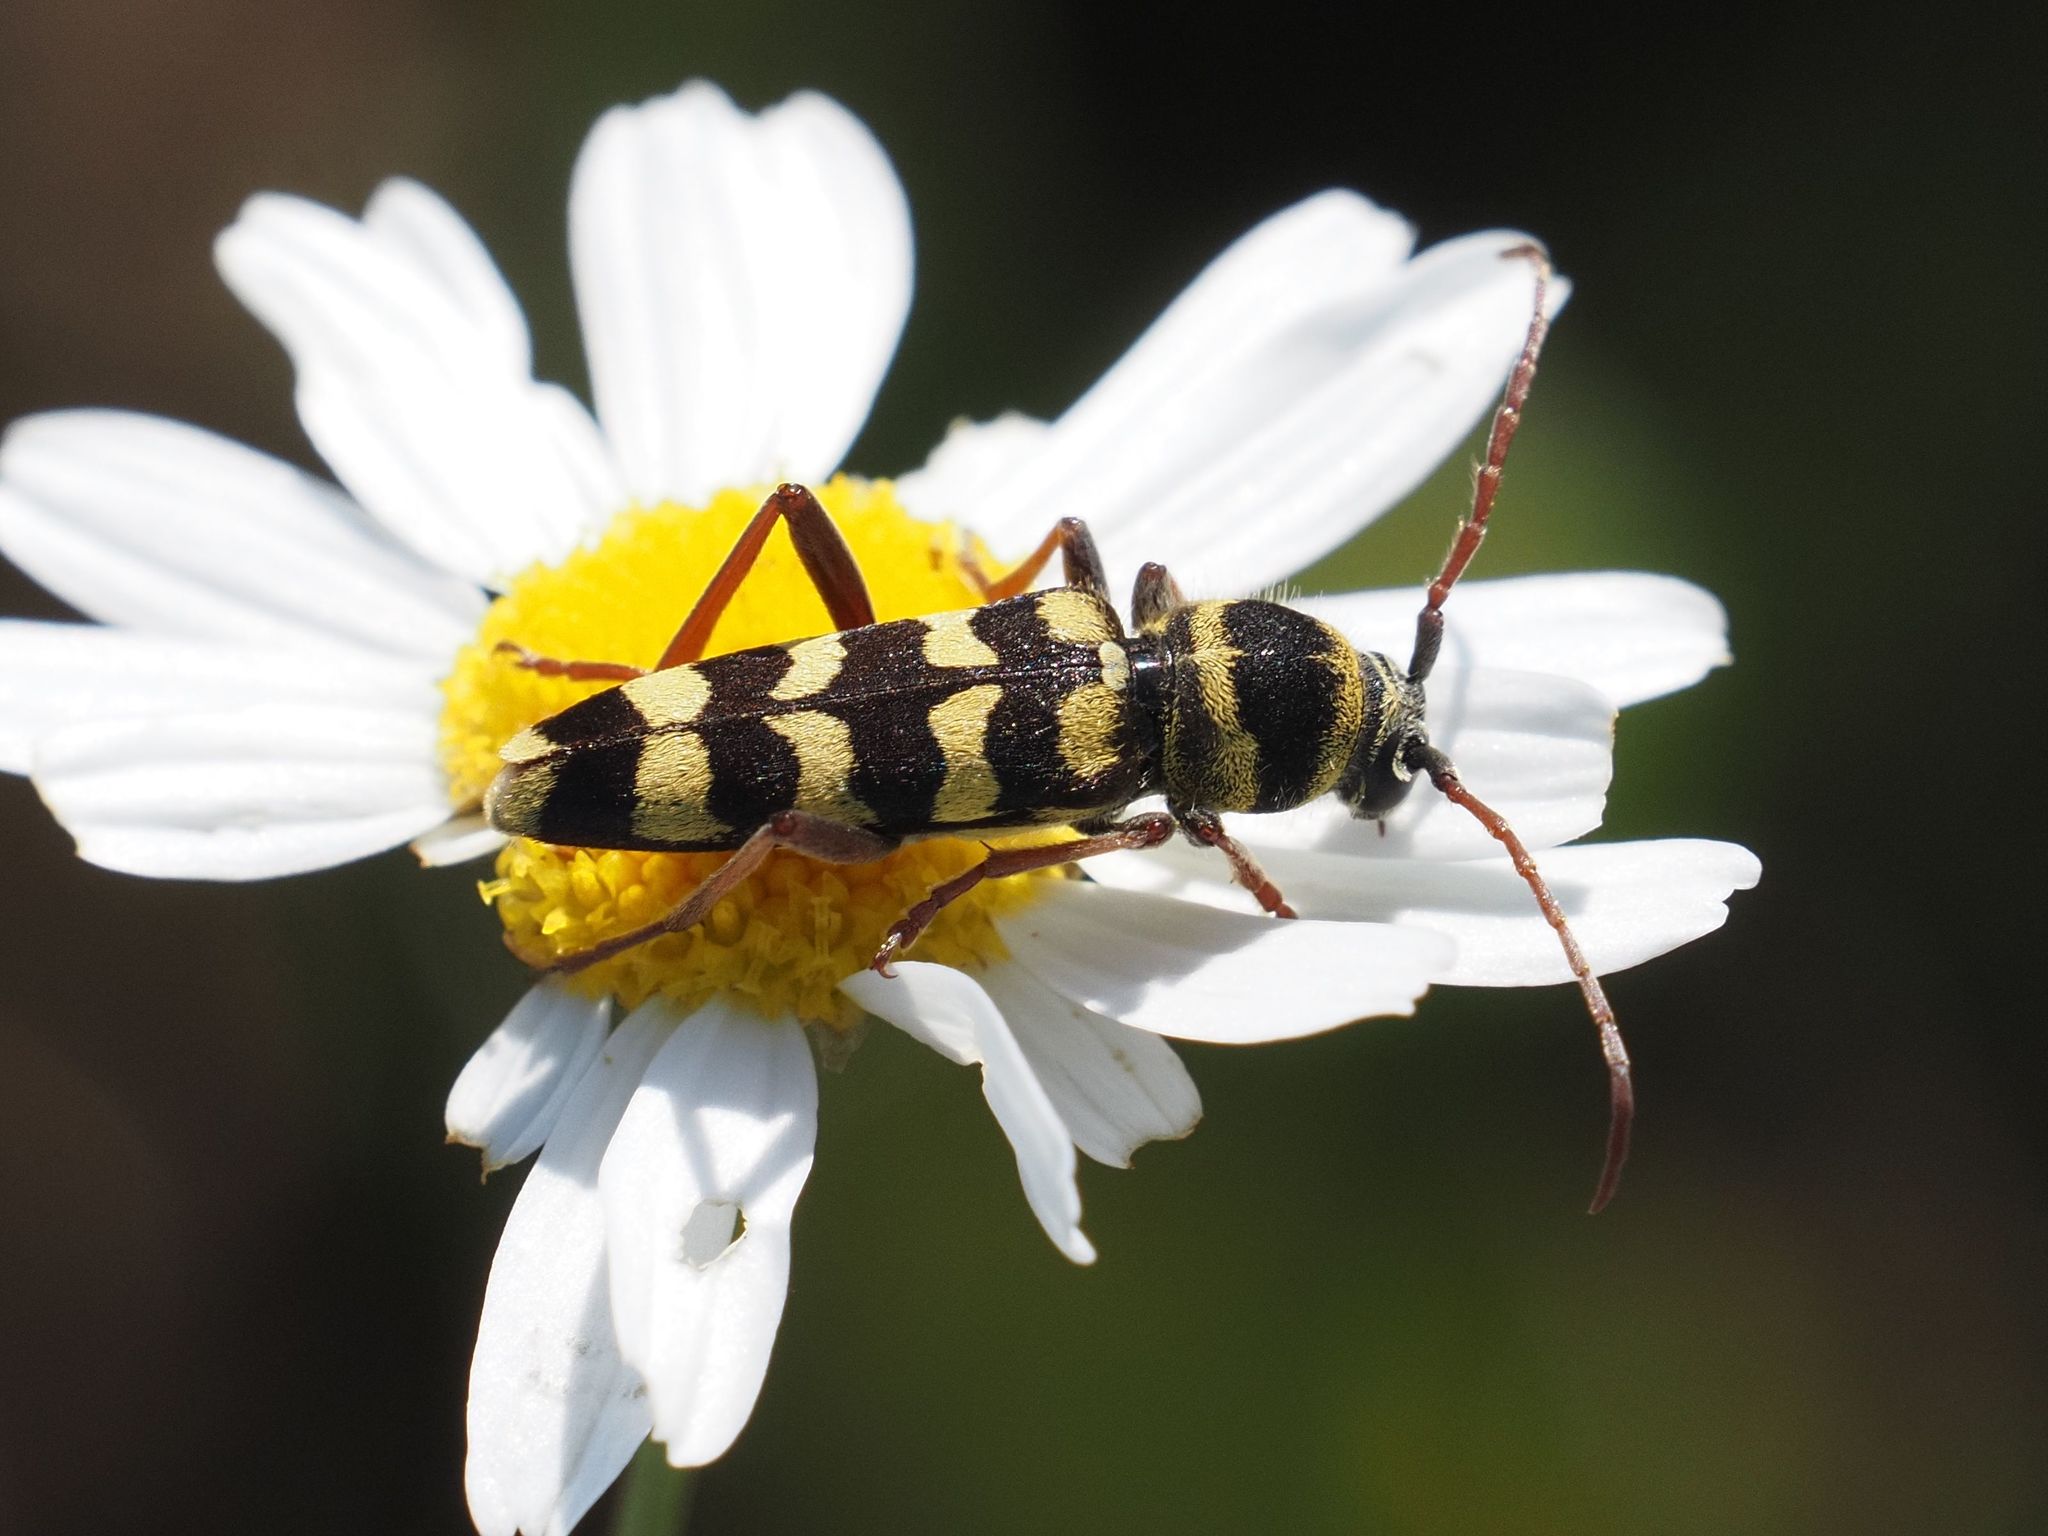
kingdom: Animalia
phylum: Arthropoda
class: Insecta
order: Coleoptera
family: Cerambycidae
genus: Plagionotus
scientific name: Plagionotus floralis
